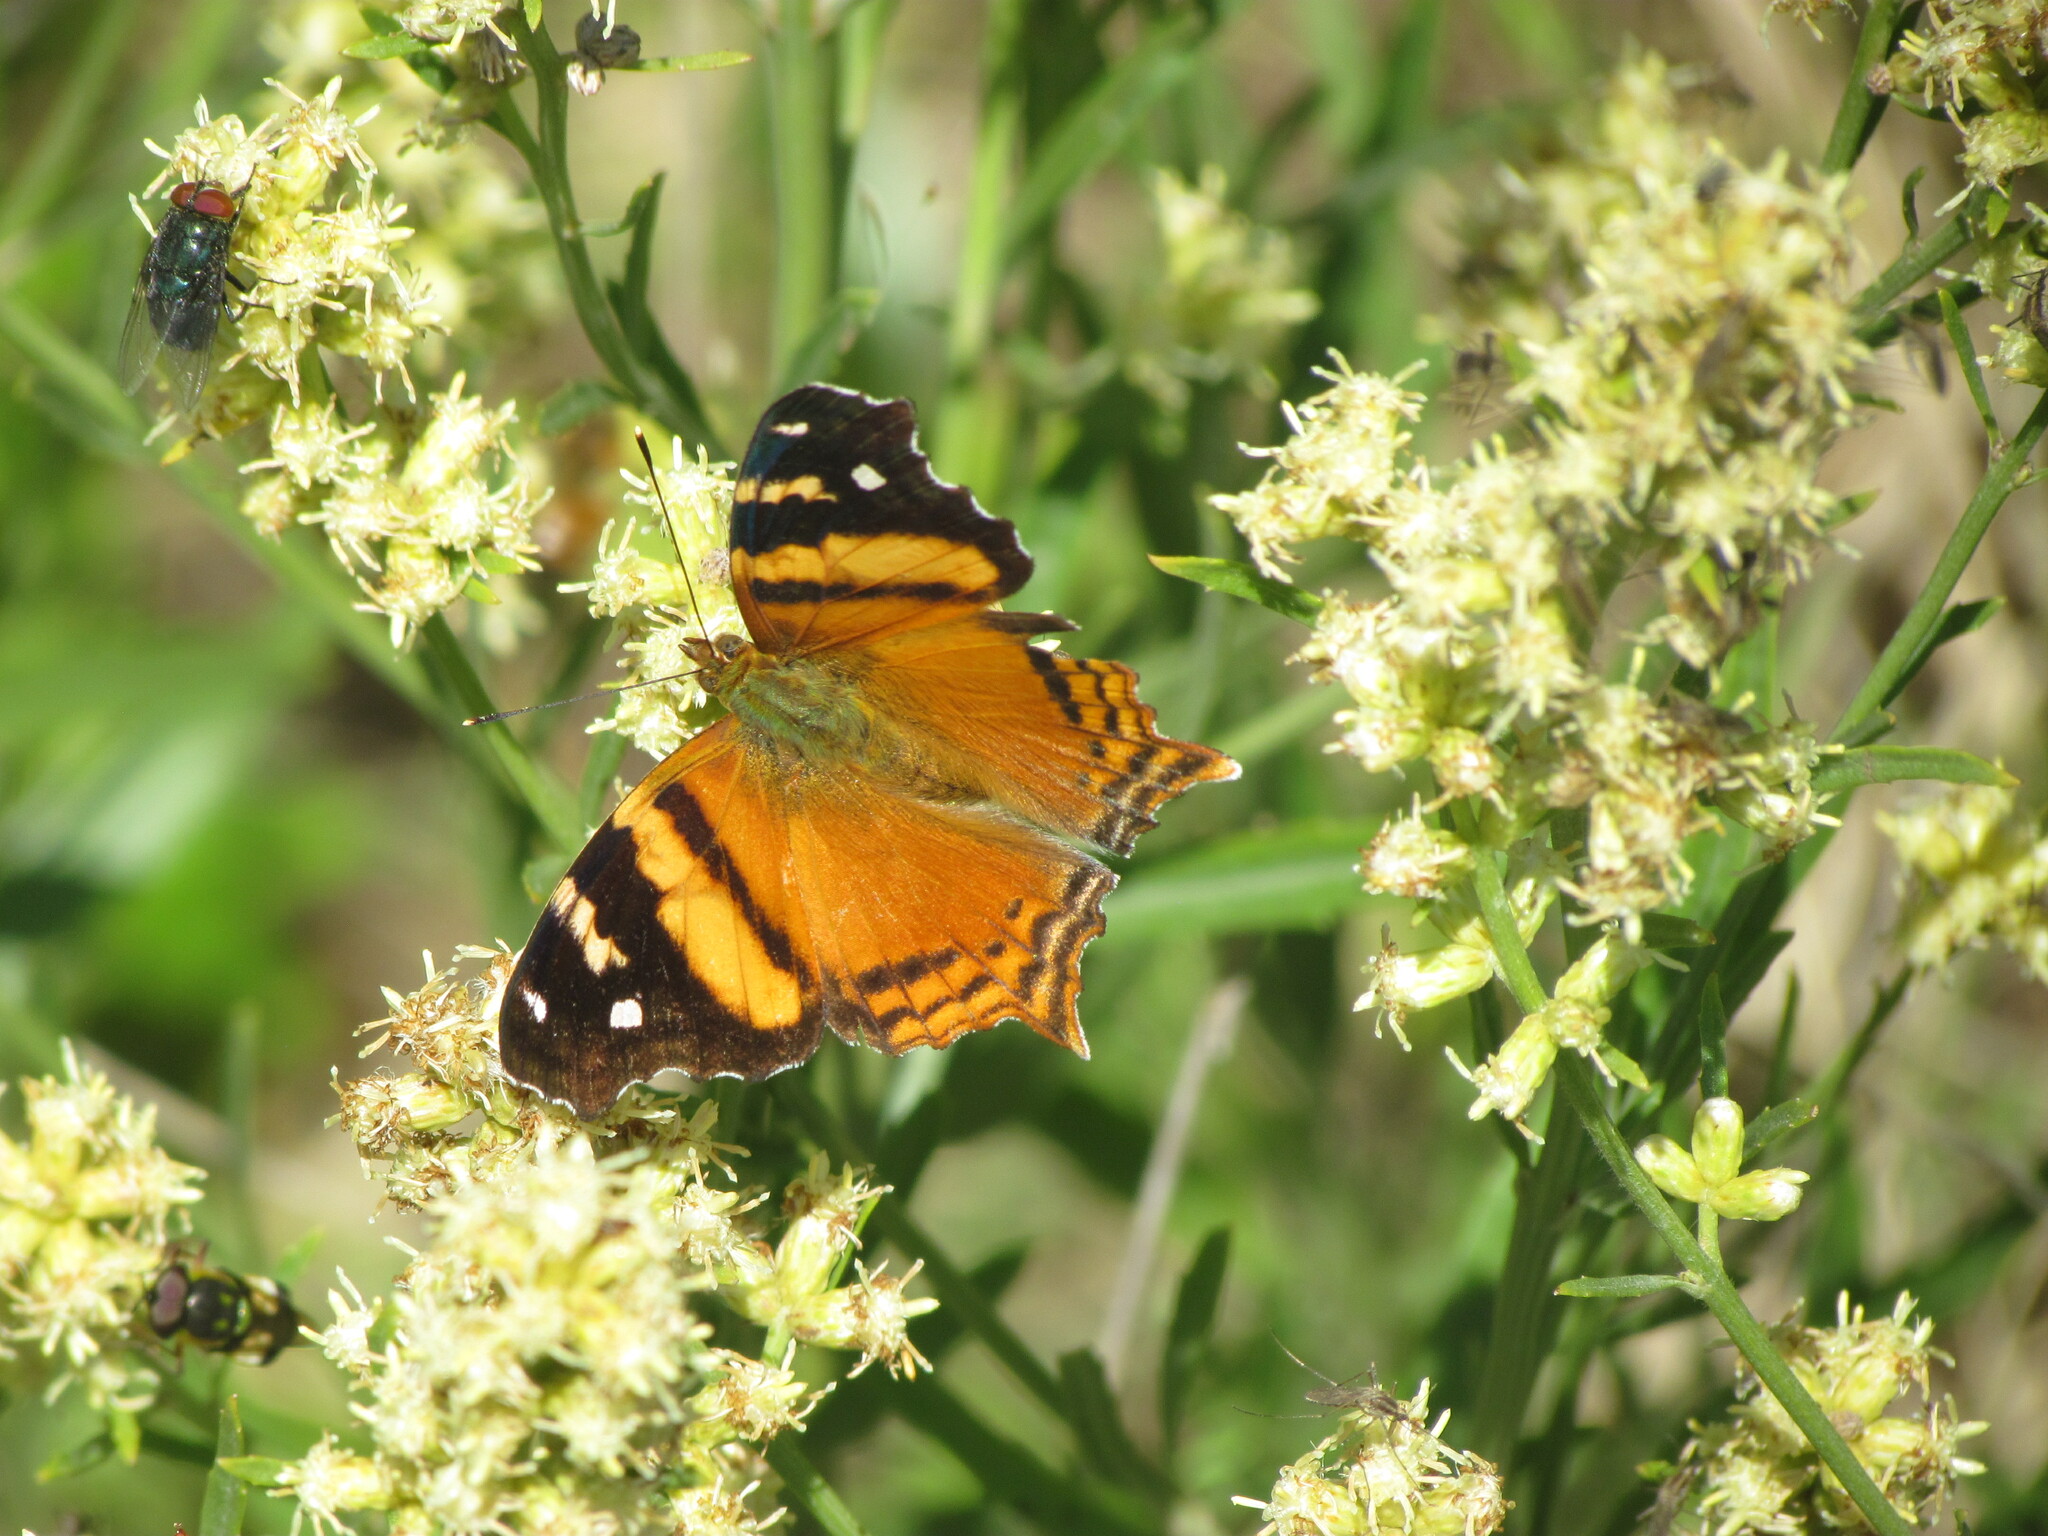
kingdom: Animalia
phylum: Arthropoda
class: Insecta
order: Lepidoptera
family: Nymphalidae
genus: Hypanartia
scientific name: Hypanartia bella
